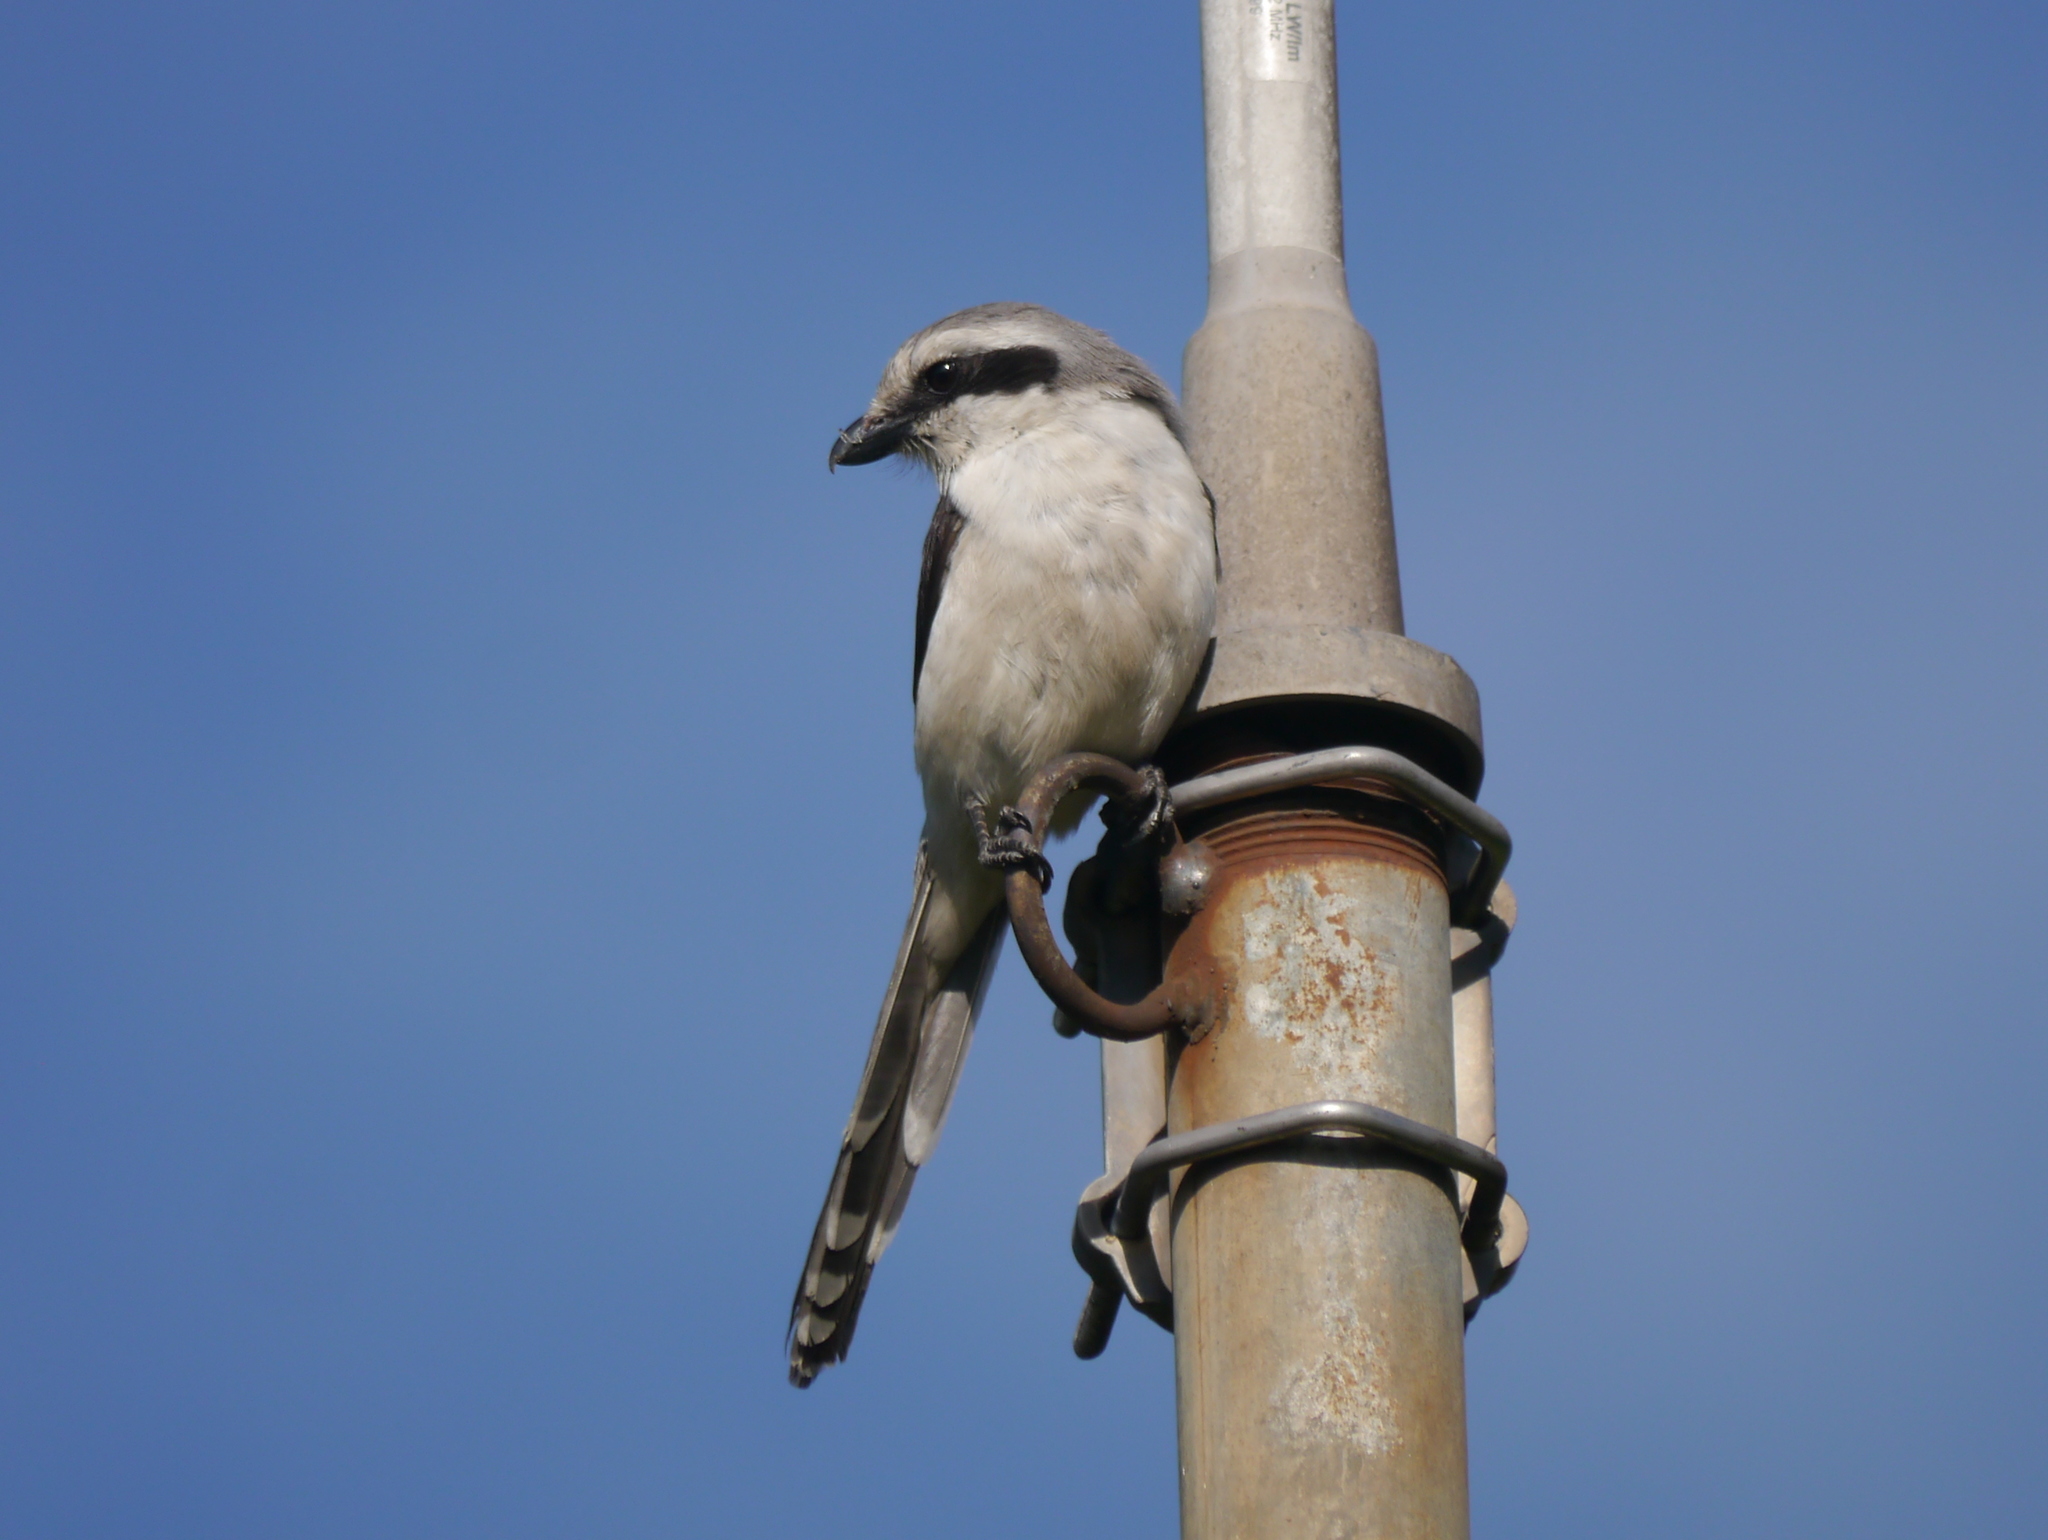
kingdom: Animalia
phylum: Chordata
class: Aves
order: Passeriformes
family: Laniidae
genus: Lanius
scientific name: Lanius mackinnoni
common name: Mackinnon's shrike
